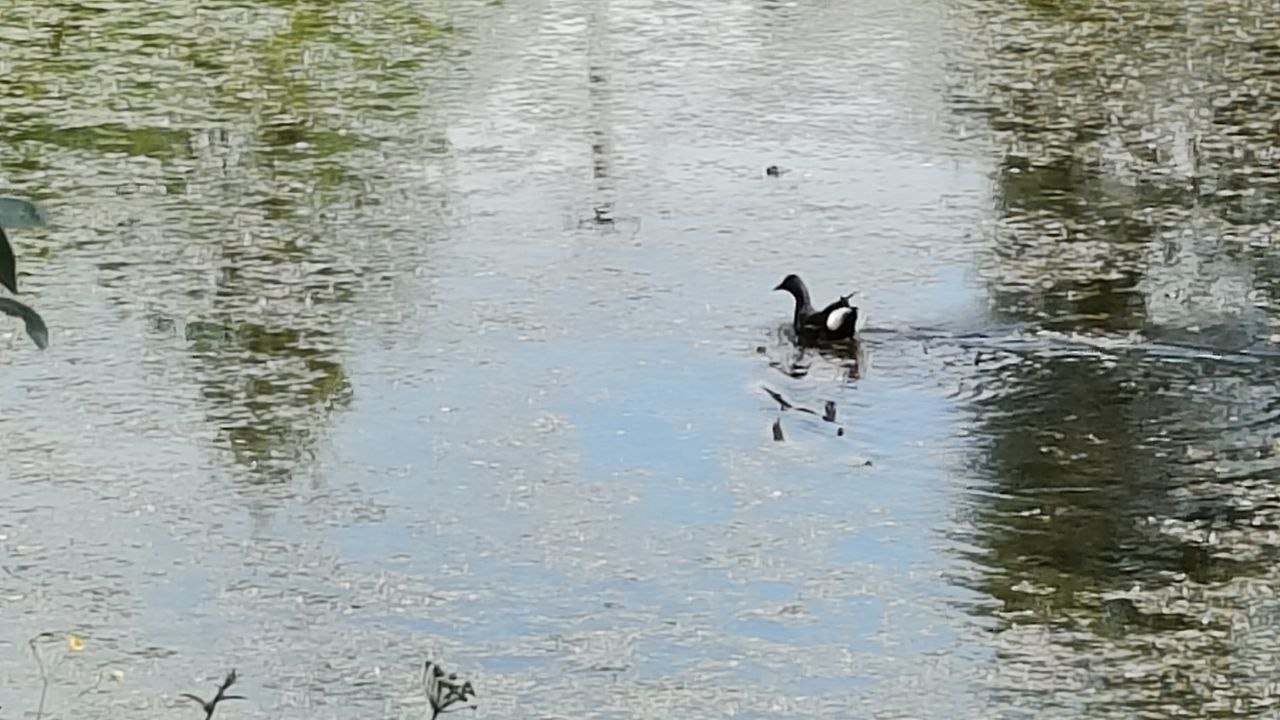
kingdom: Animalia
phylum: Chordata
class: Aves
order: Gruiformes
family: Rallidae
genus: Gallinula
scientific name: Gallinula chloropus
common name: Common moorhen
